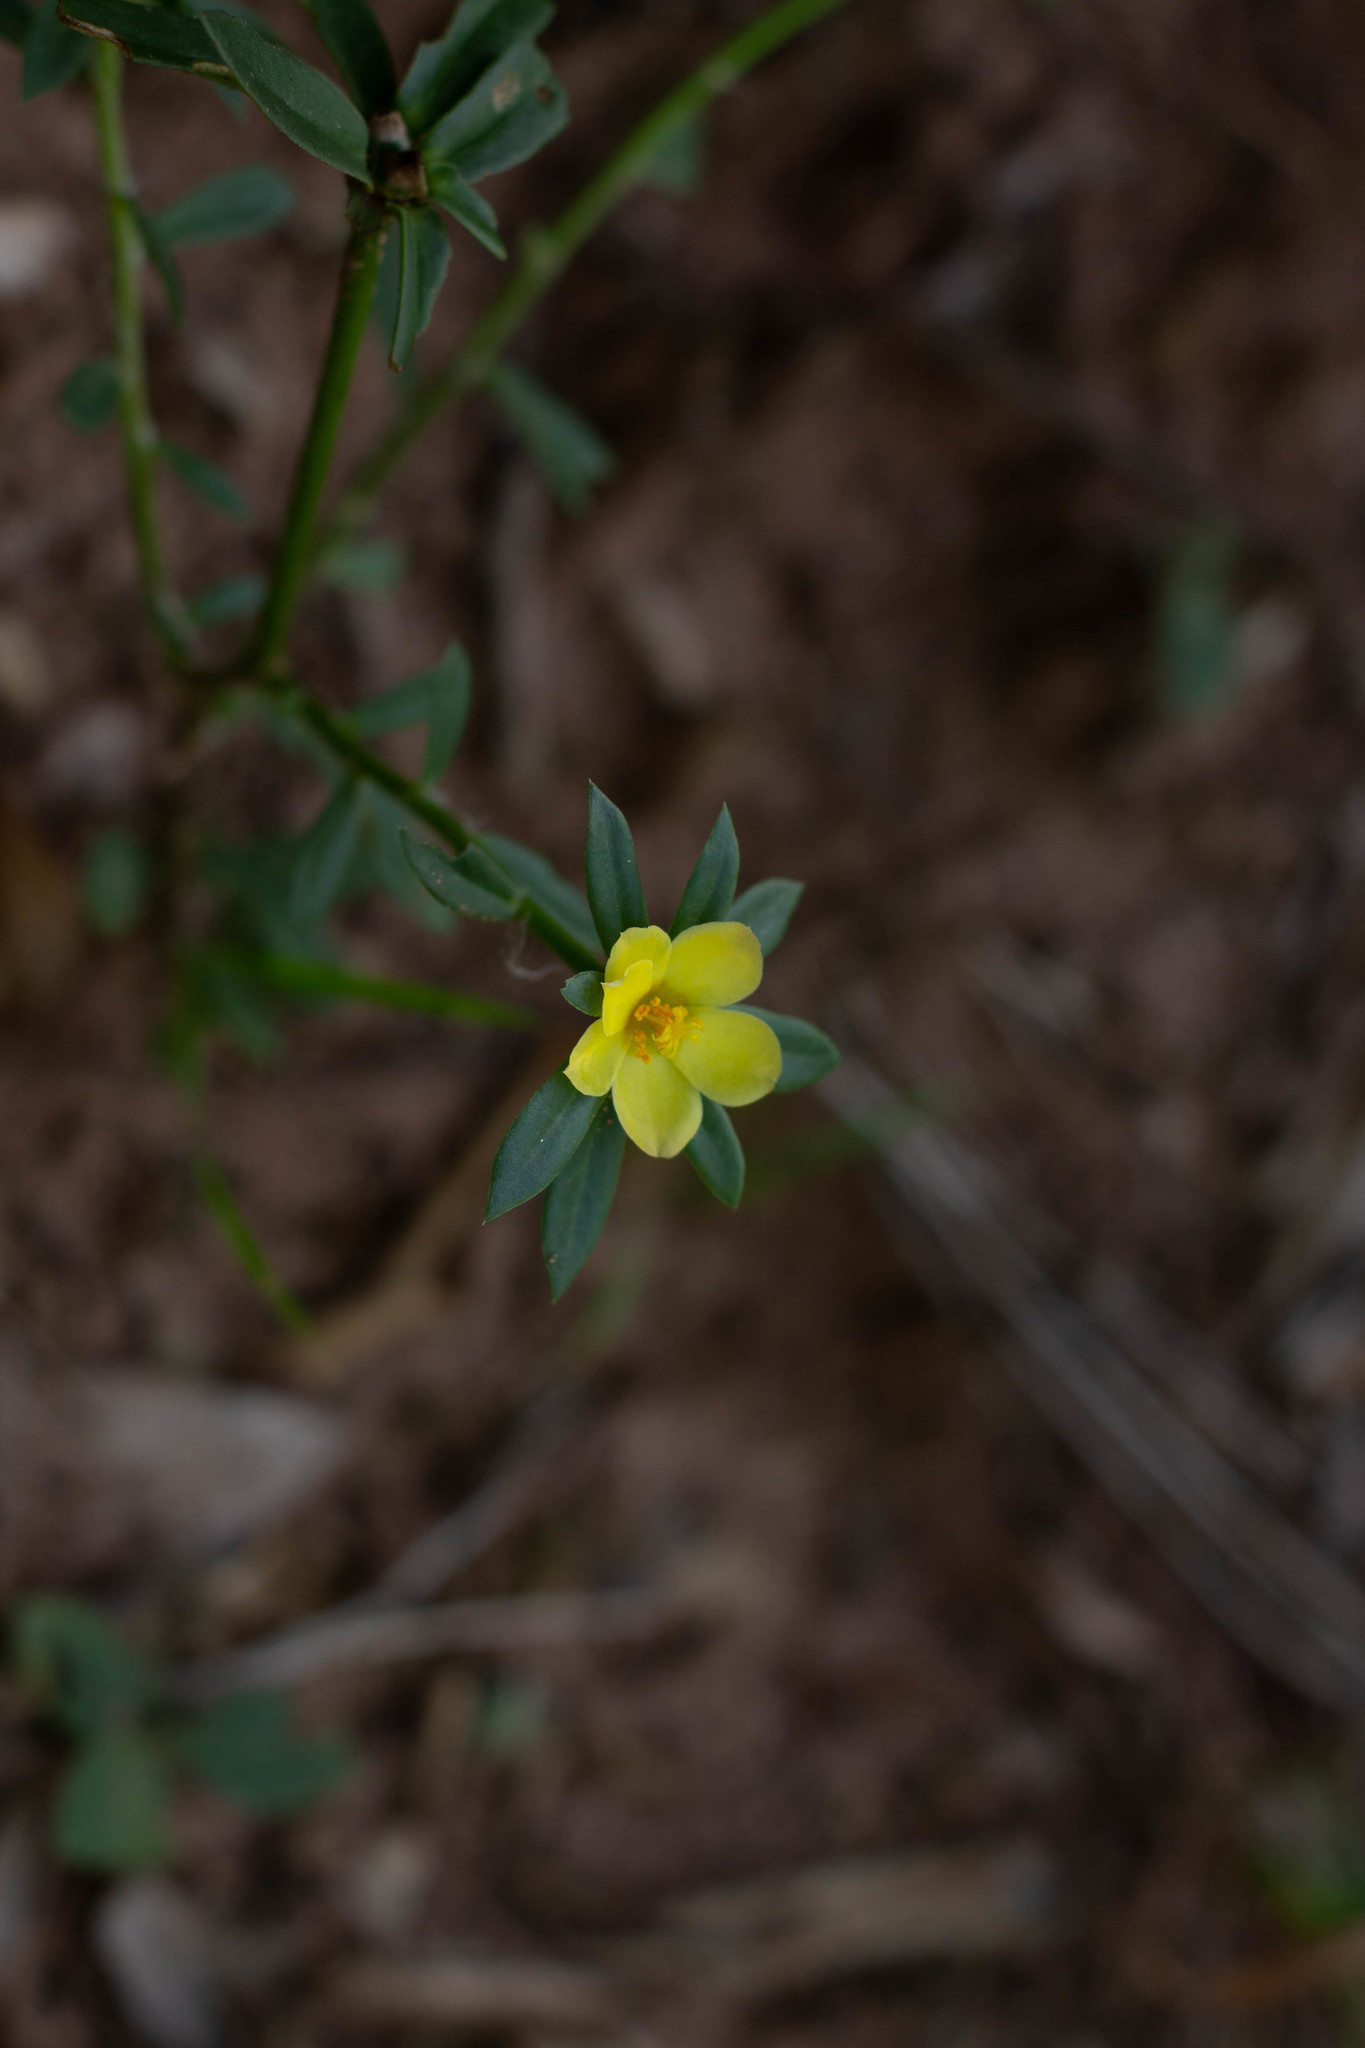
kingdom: Plantae
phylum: Tracheophyta
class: Magnoliopsida
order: Caryophyllales
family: Portulacaceae
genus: Portulaca
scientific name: Portulaca mucronata
